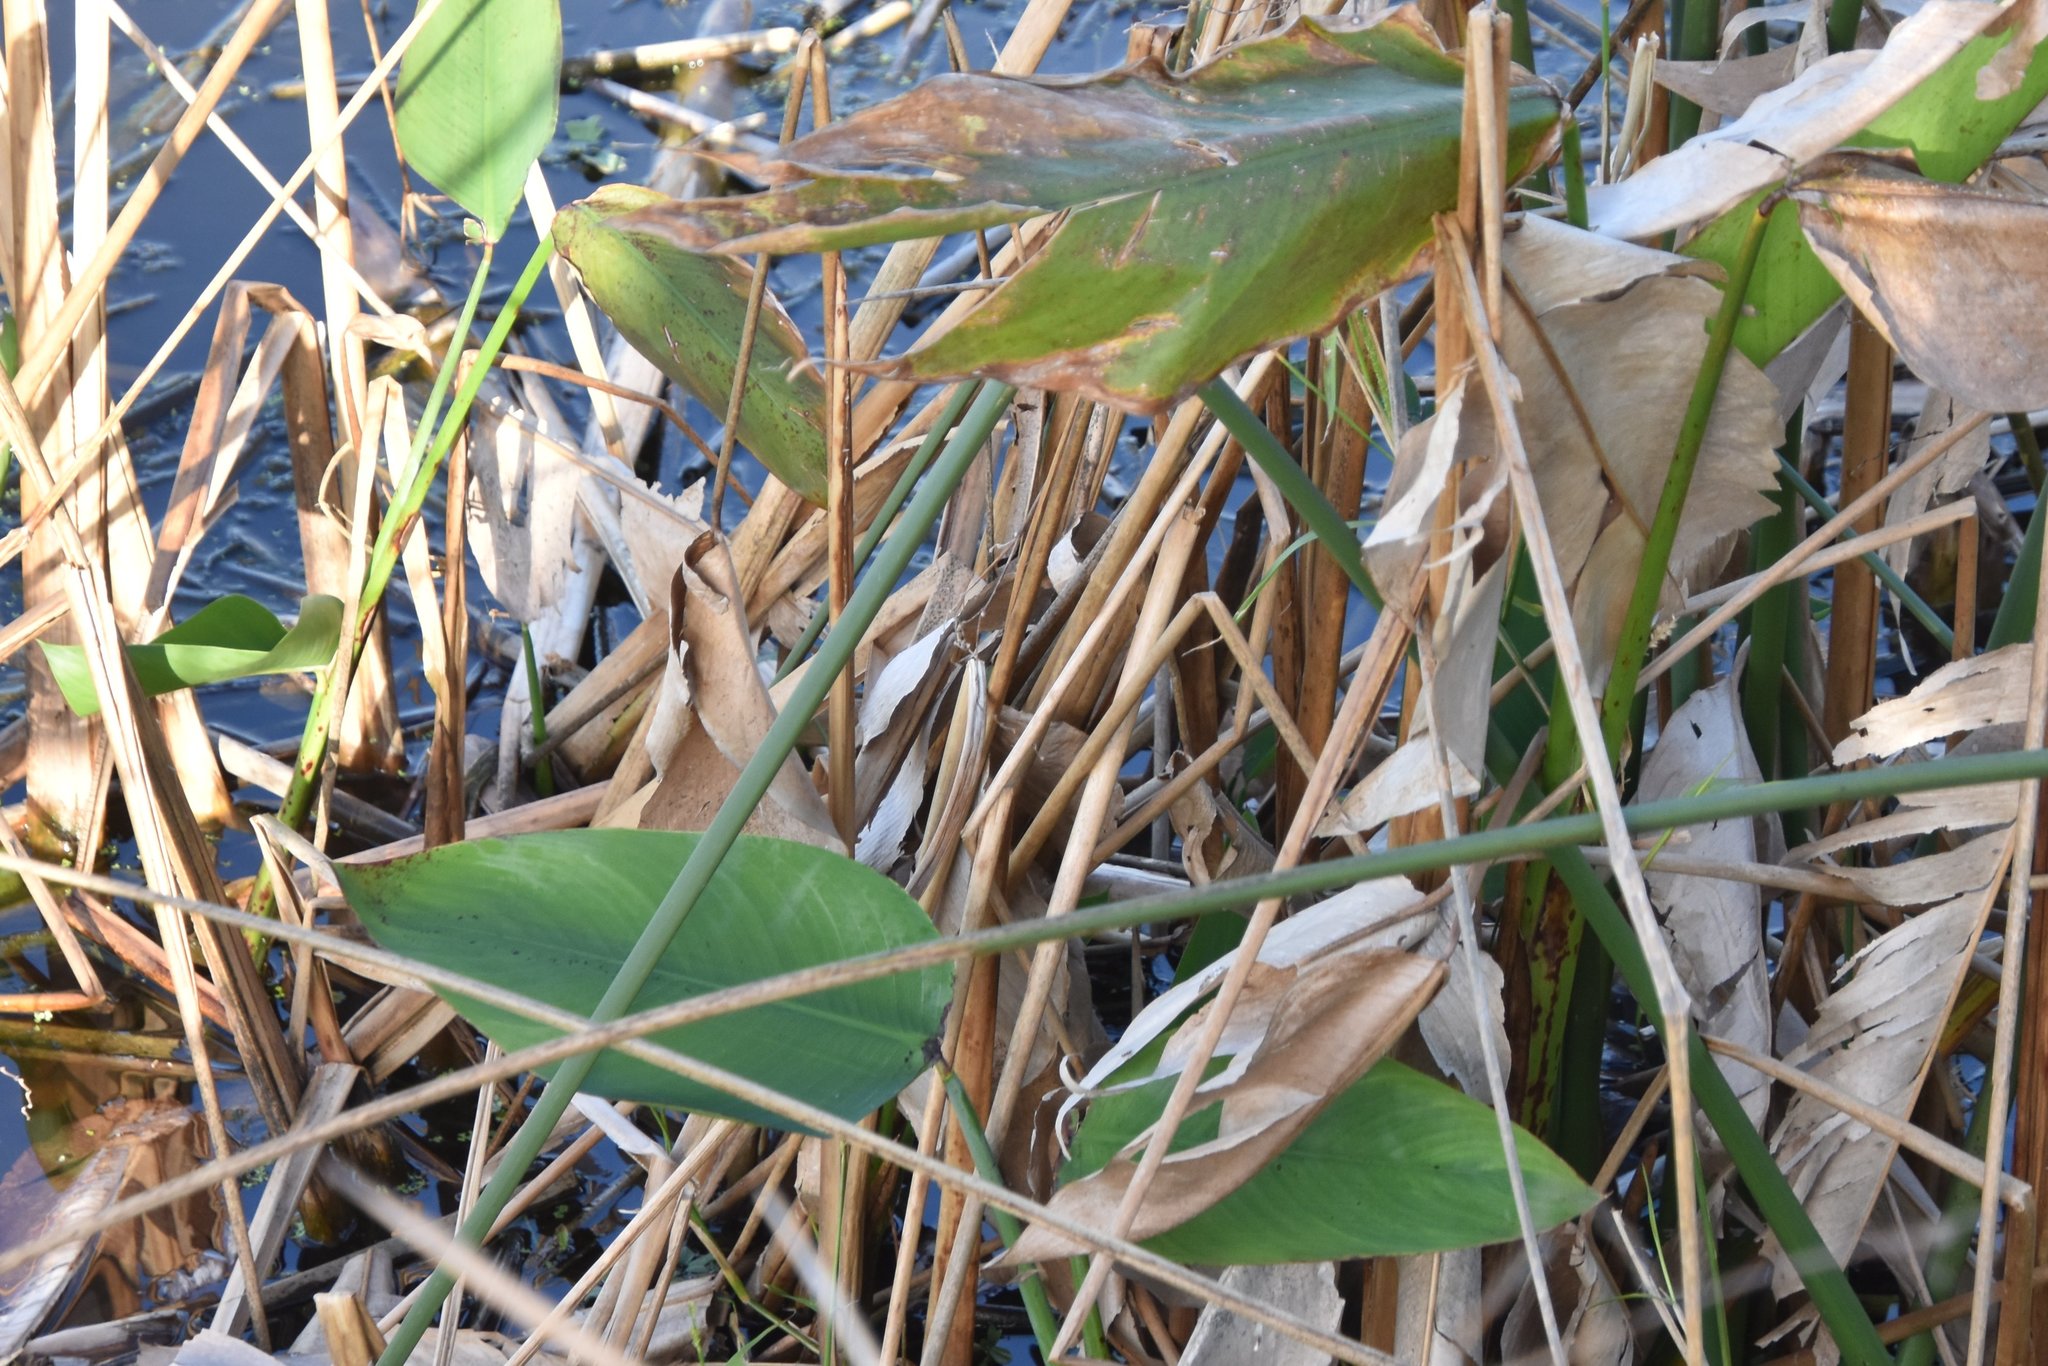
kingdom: Plantae
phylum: Tracheophyta
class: Liliopsida
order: Zingiberales
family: Marantaceae
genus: Thalia
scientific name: Thalia geniculata
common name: Arrowroot
